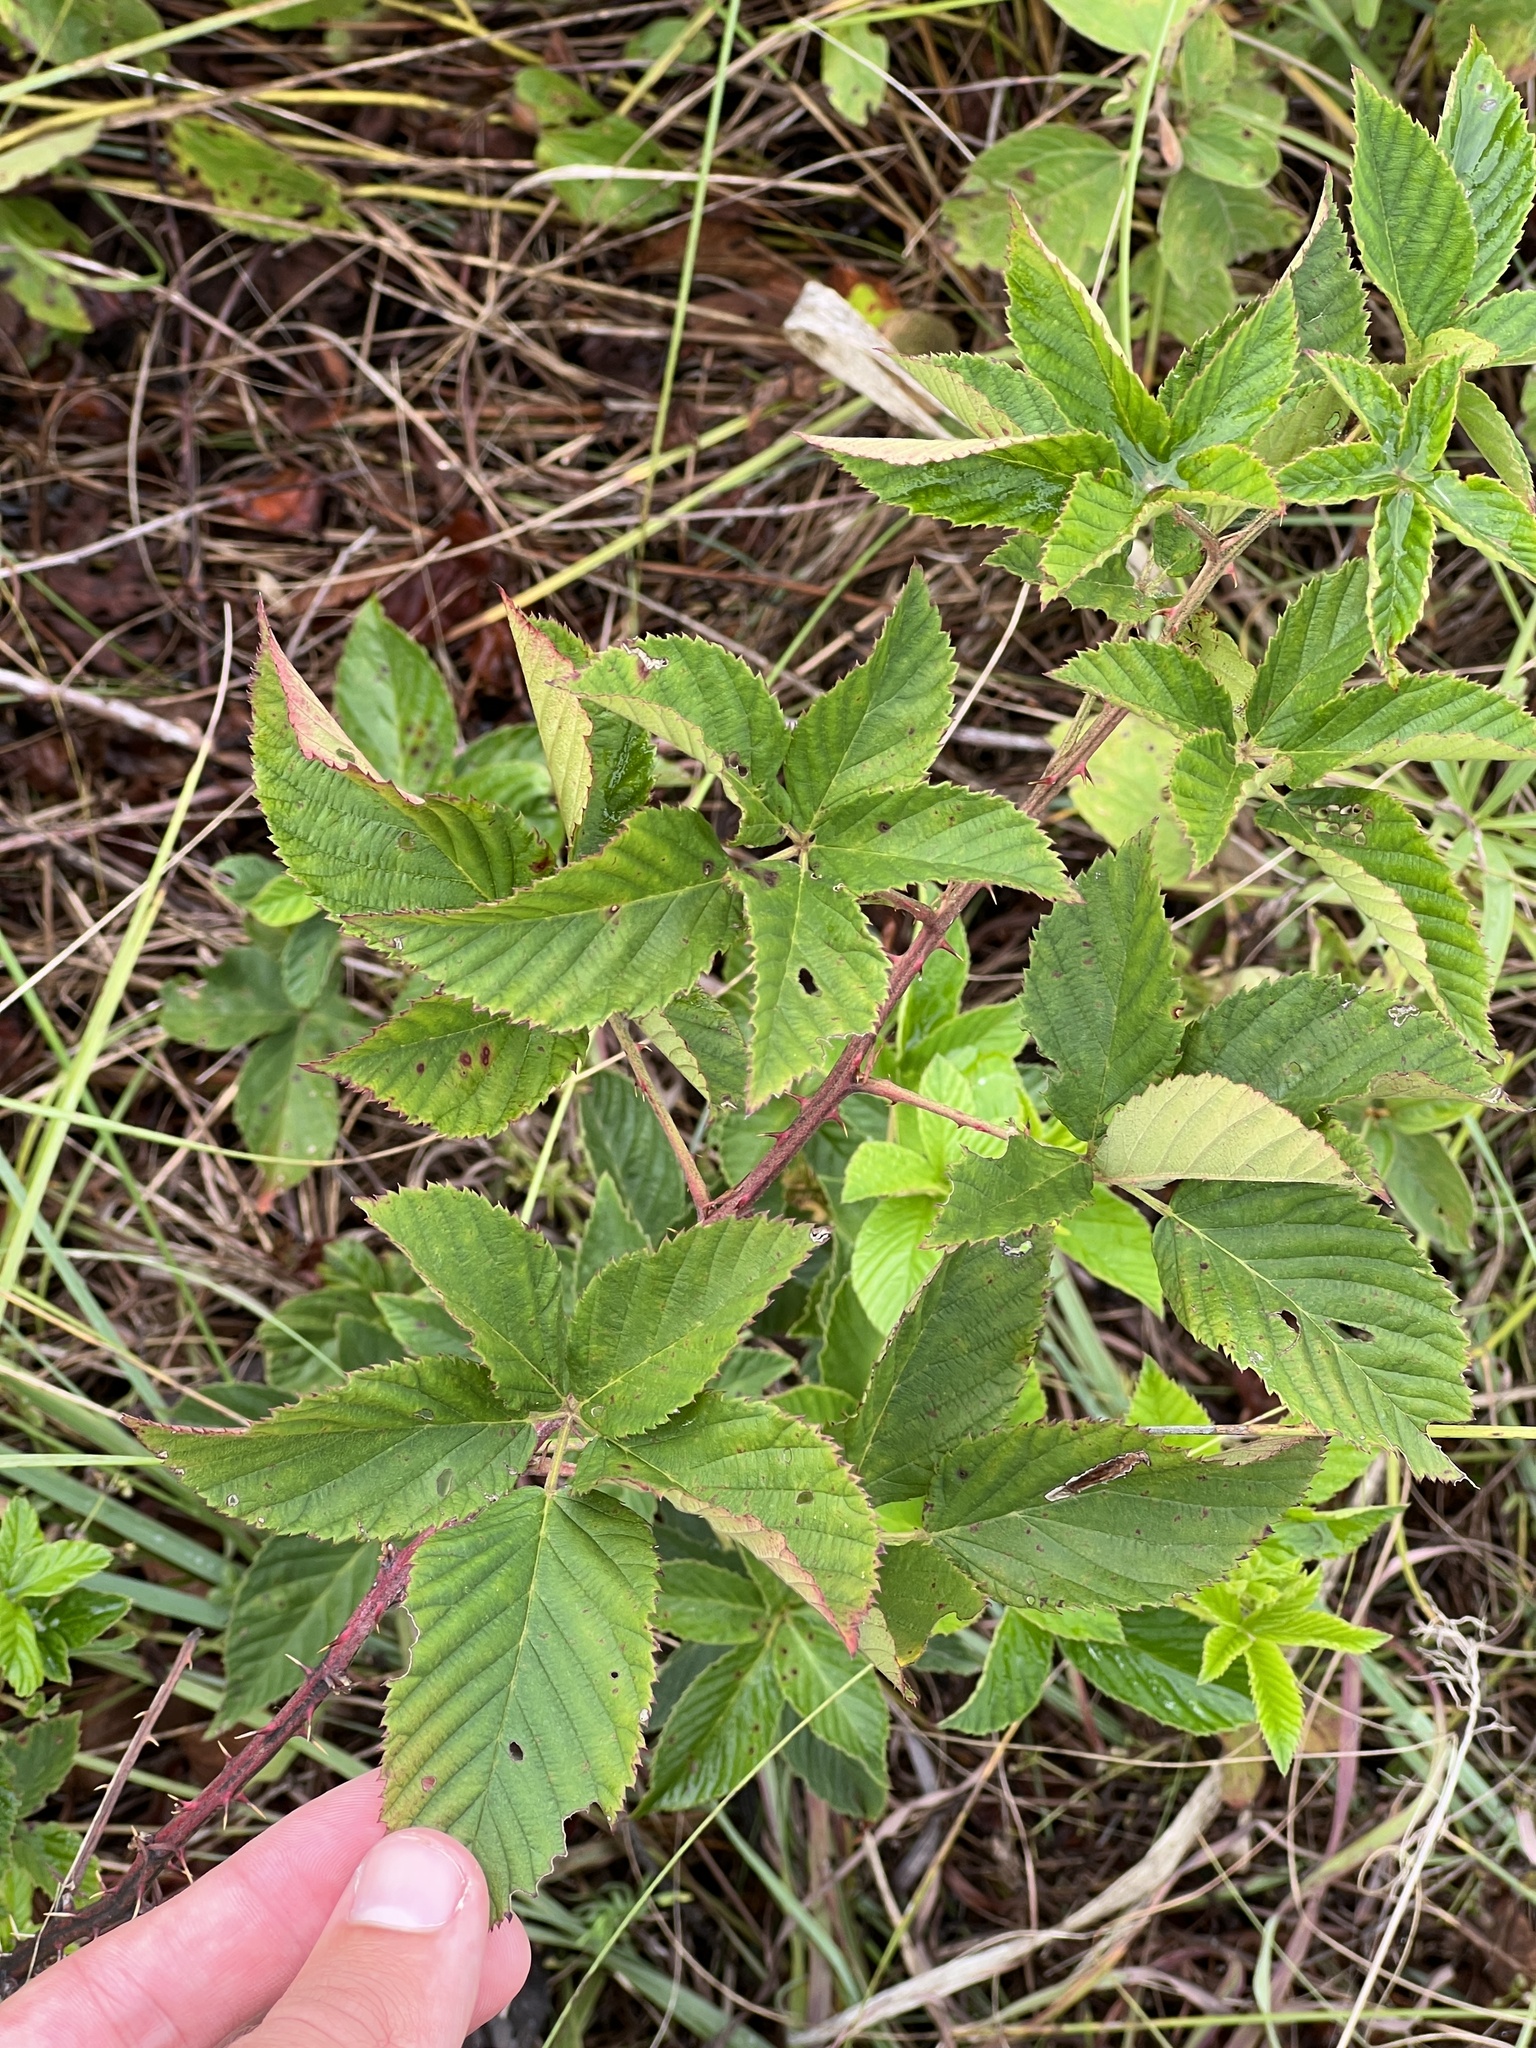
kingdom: Plantae
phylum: Tracheophyta
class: Magnoliopsida
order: Rosales
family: Rosaceae
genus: Rubus
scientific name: Rubus laudatus
